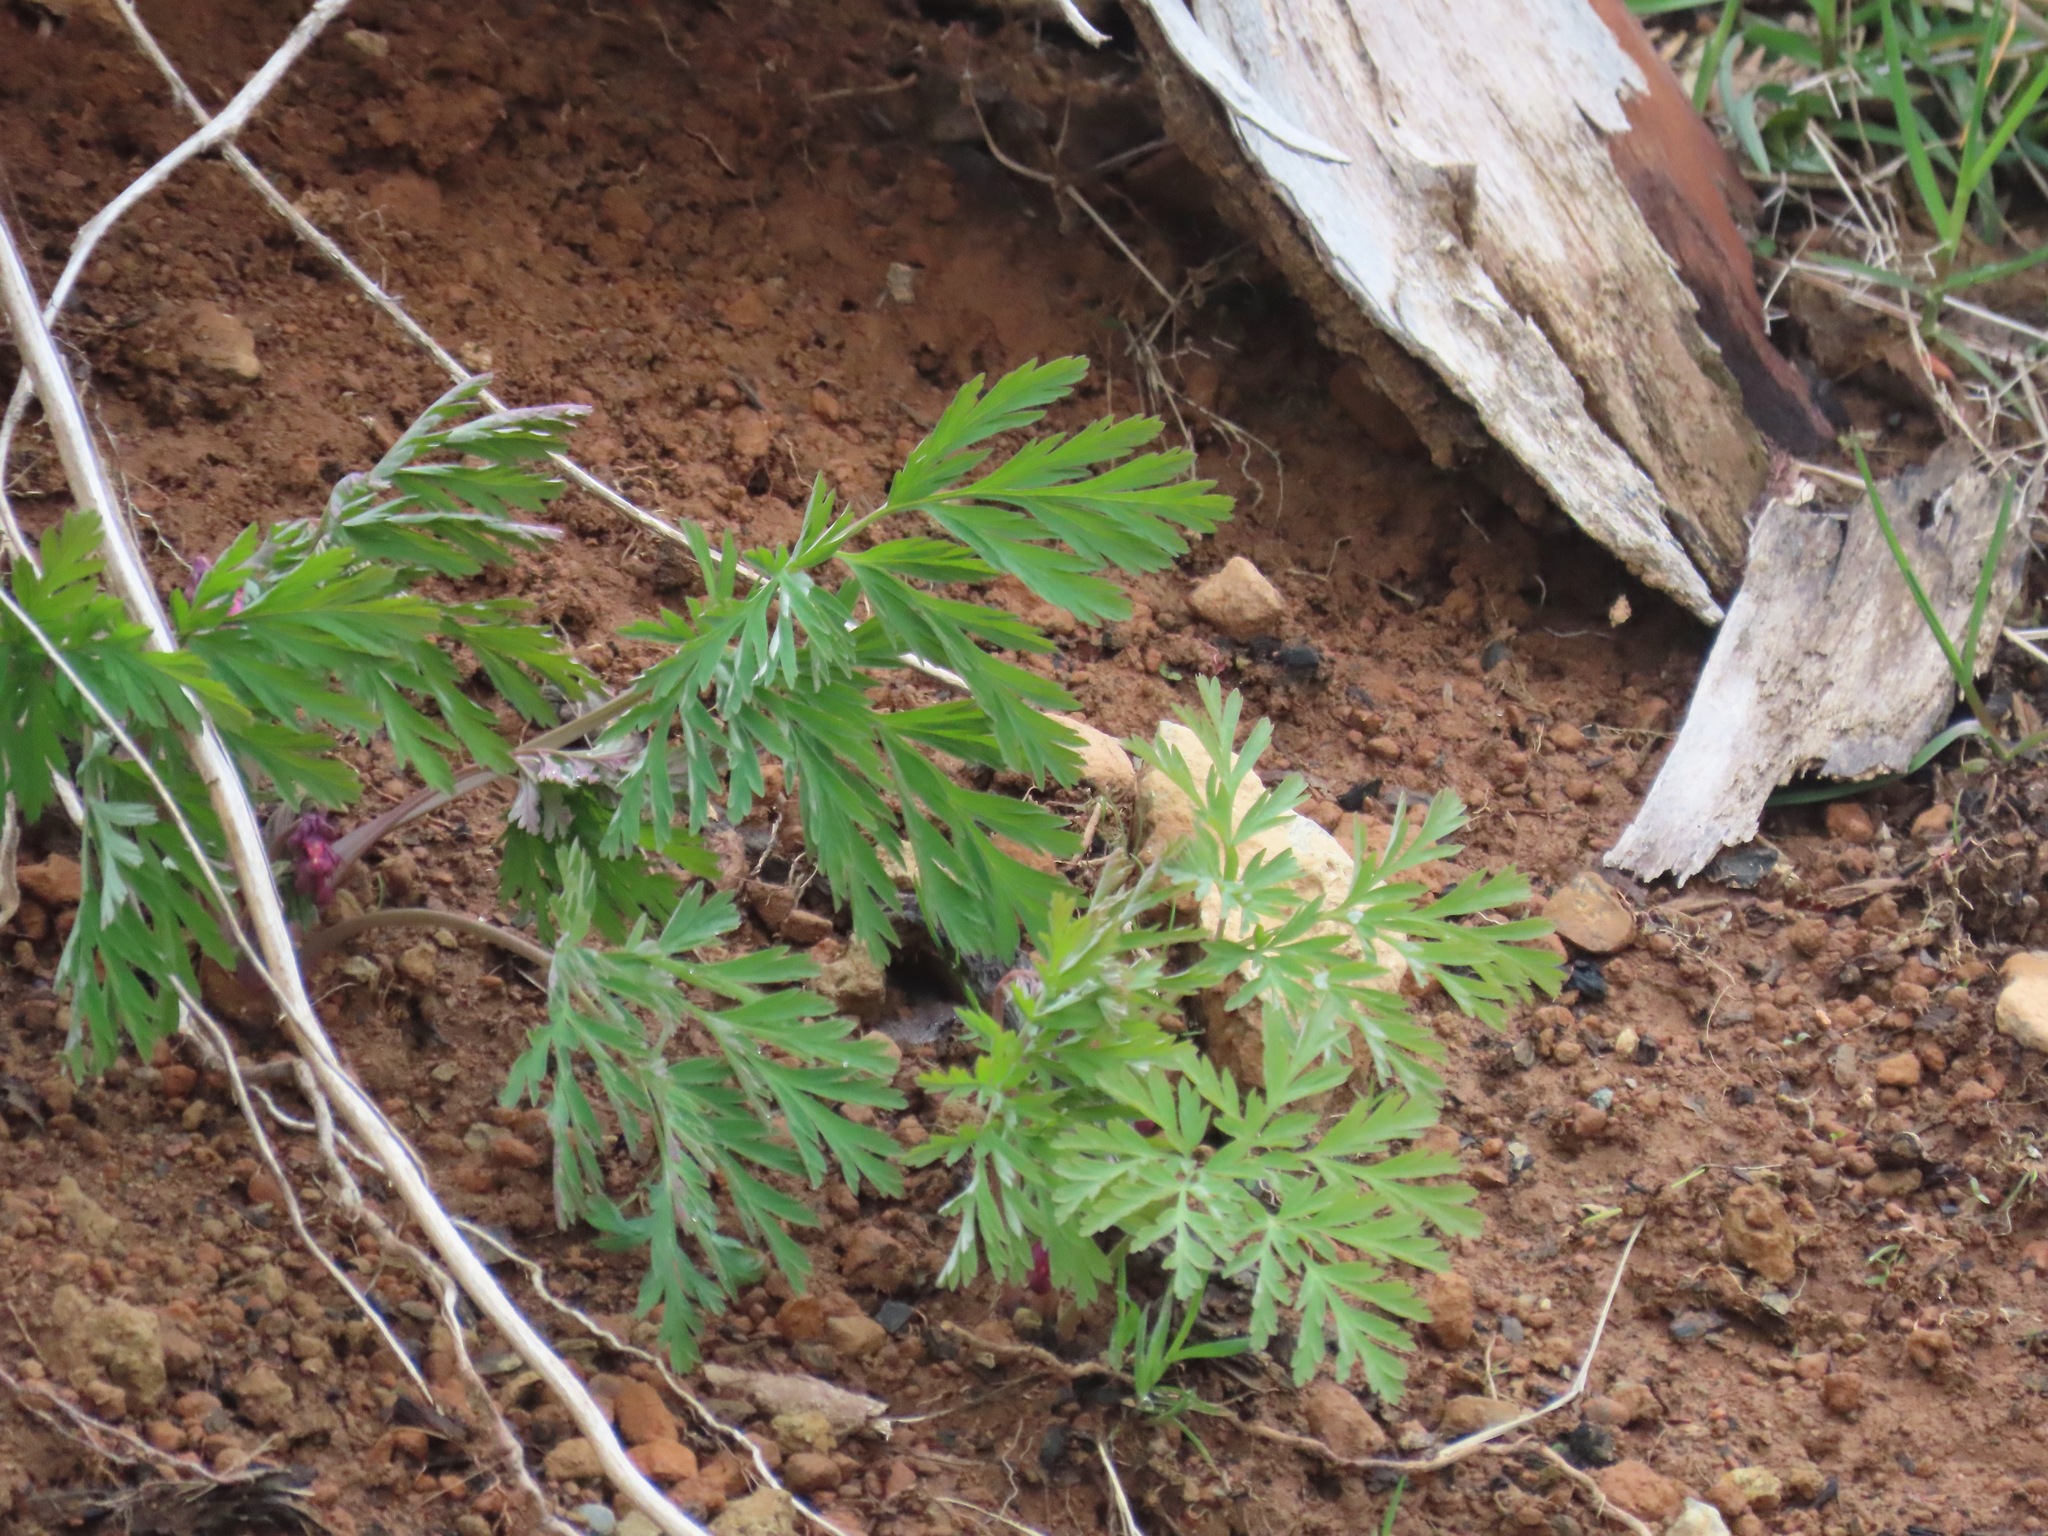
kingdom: Plantae
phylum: Tracheophyta
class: Magnoliopsida
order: Ranunculales
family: Papaveraceae
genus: Dicentra
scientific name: Dicentra formosa
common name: Bleeding-heart
